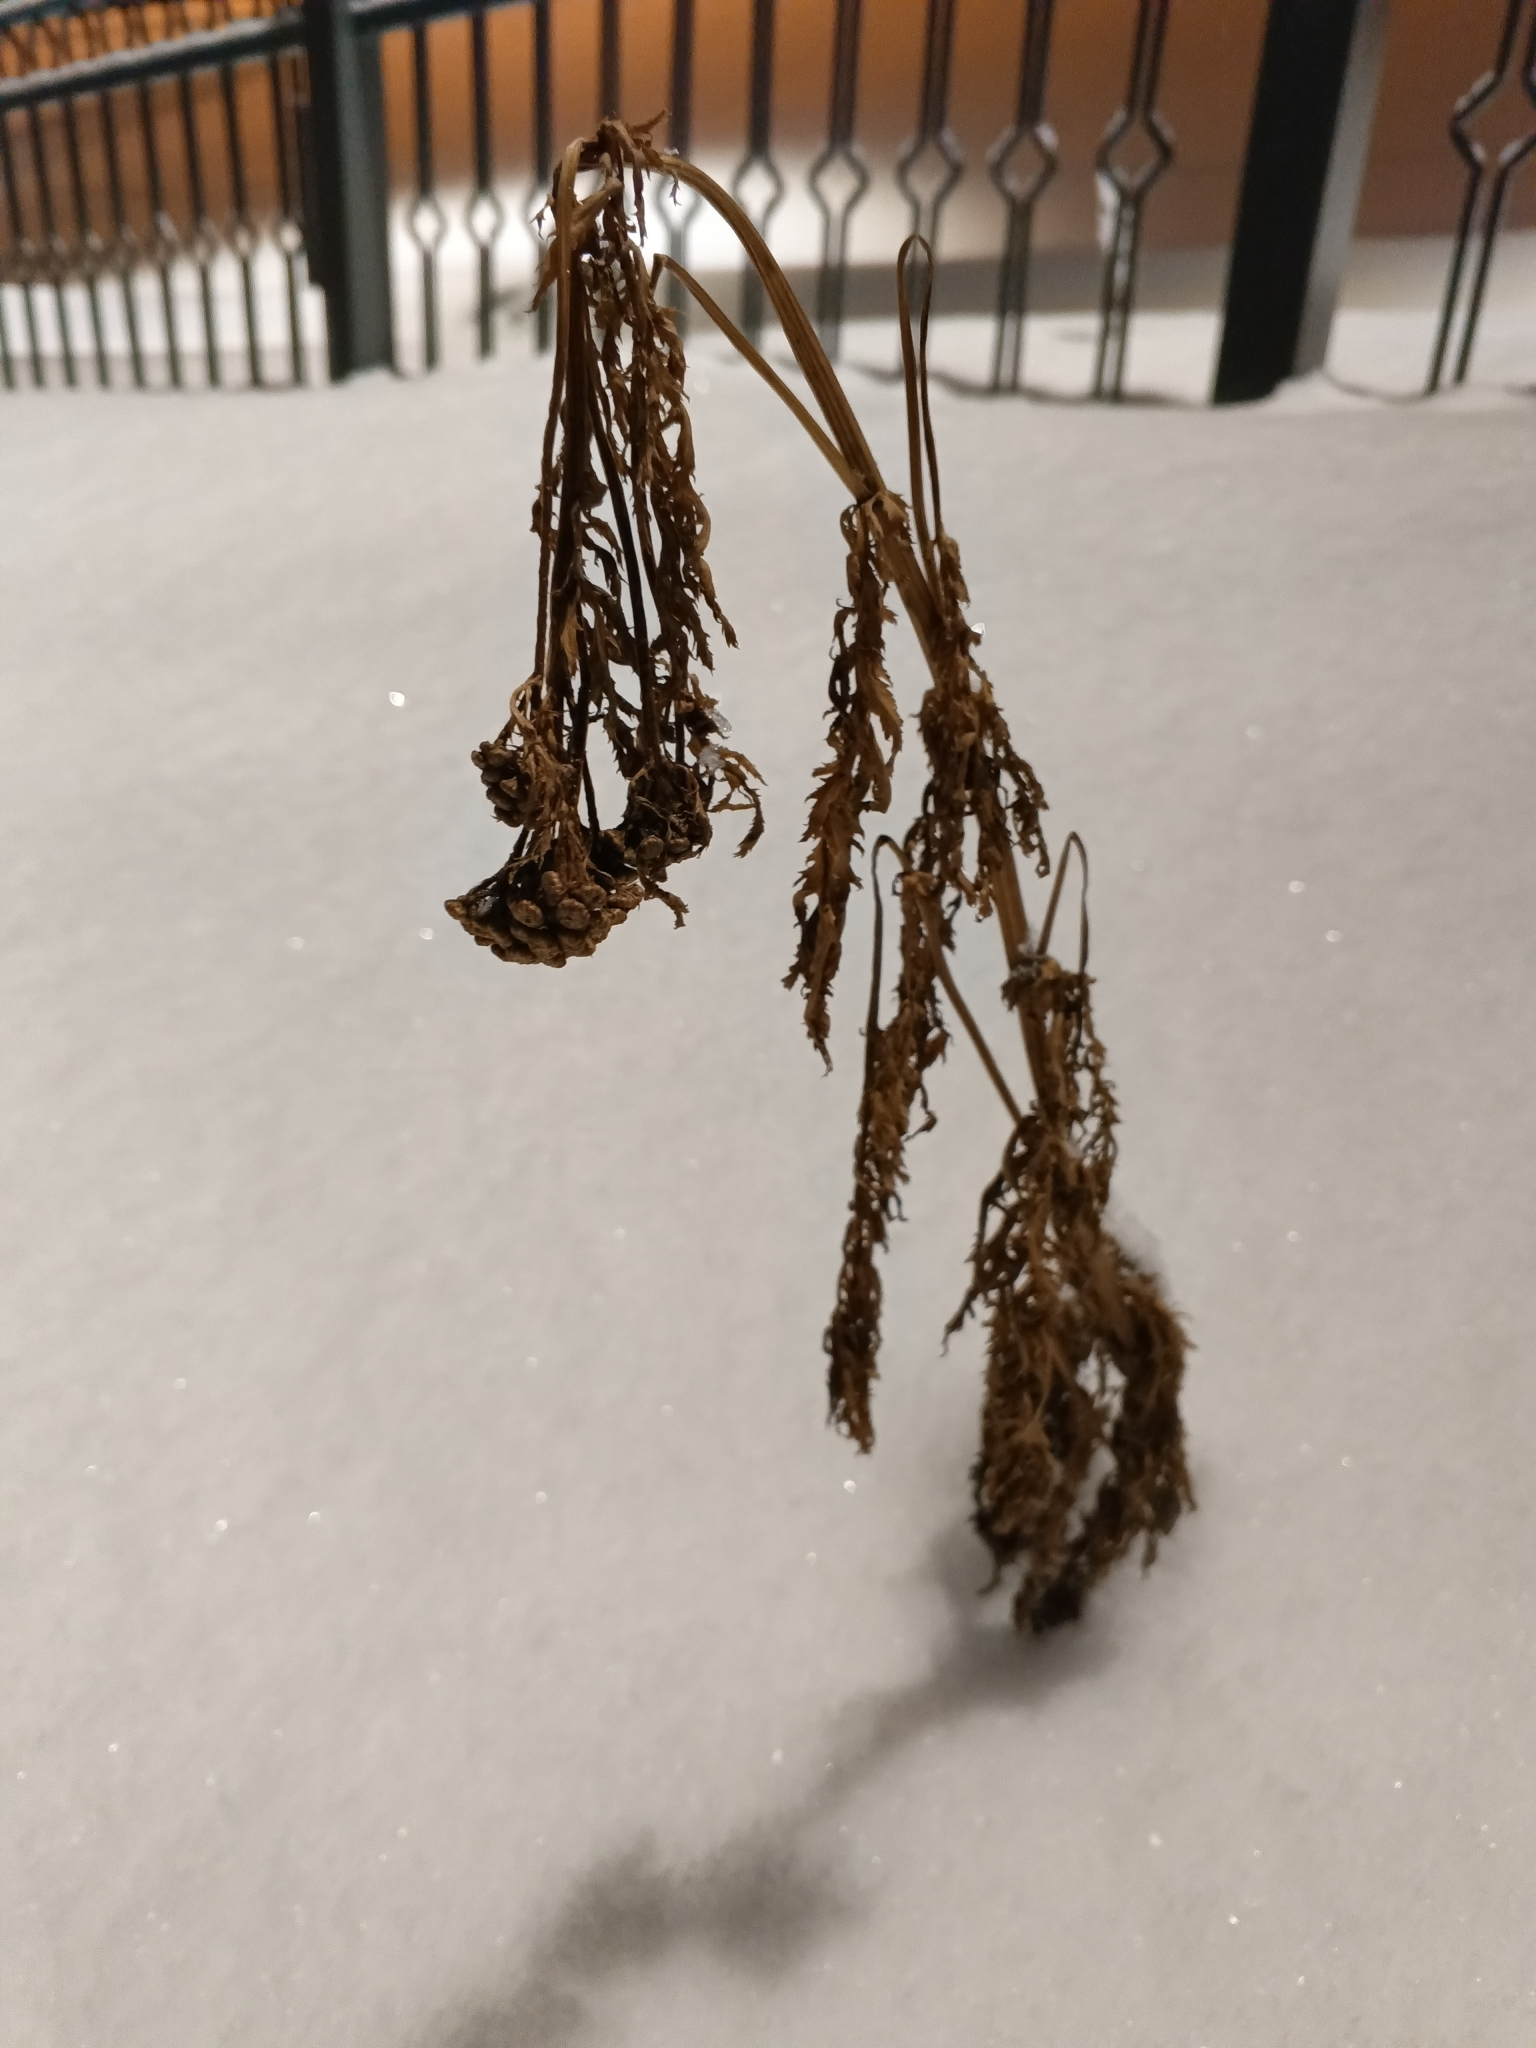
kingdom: Plantae
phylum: Tracheophyta
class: Magnoliopsida
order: Asterales
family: Asteraceae
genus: Tanacetum
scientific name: Tanacetum vulgare
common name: Common tansy
